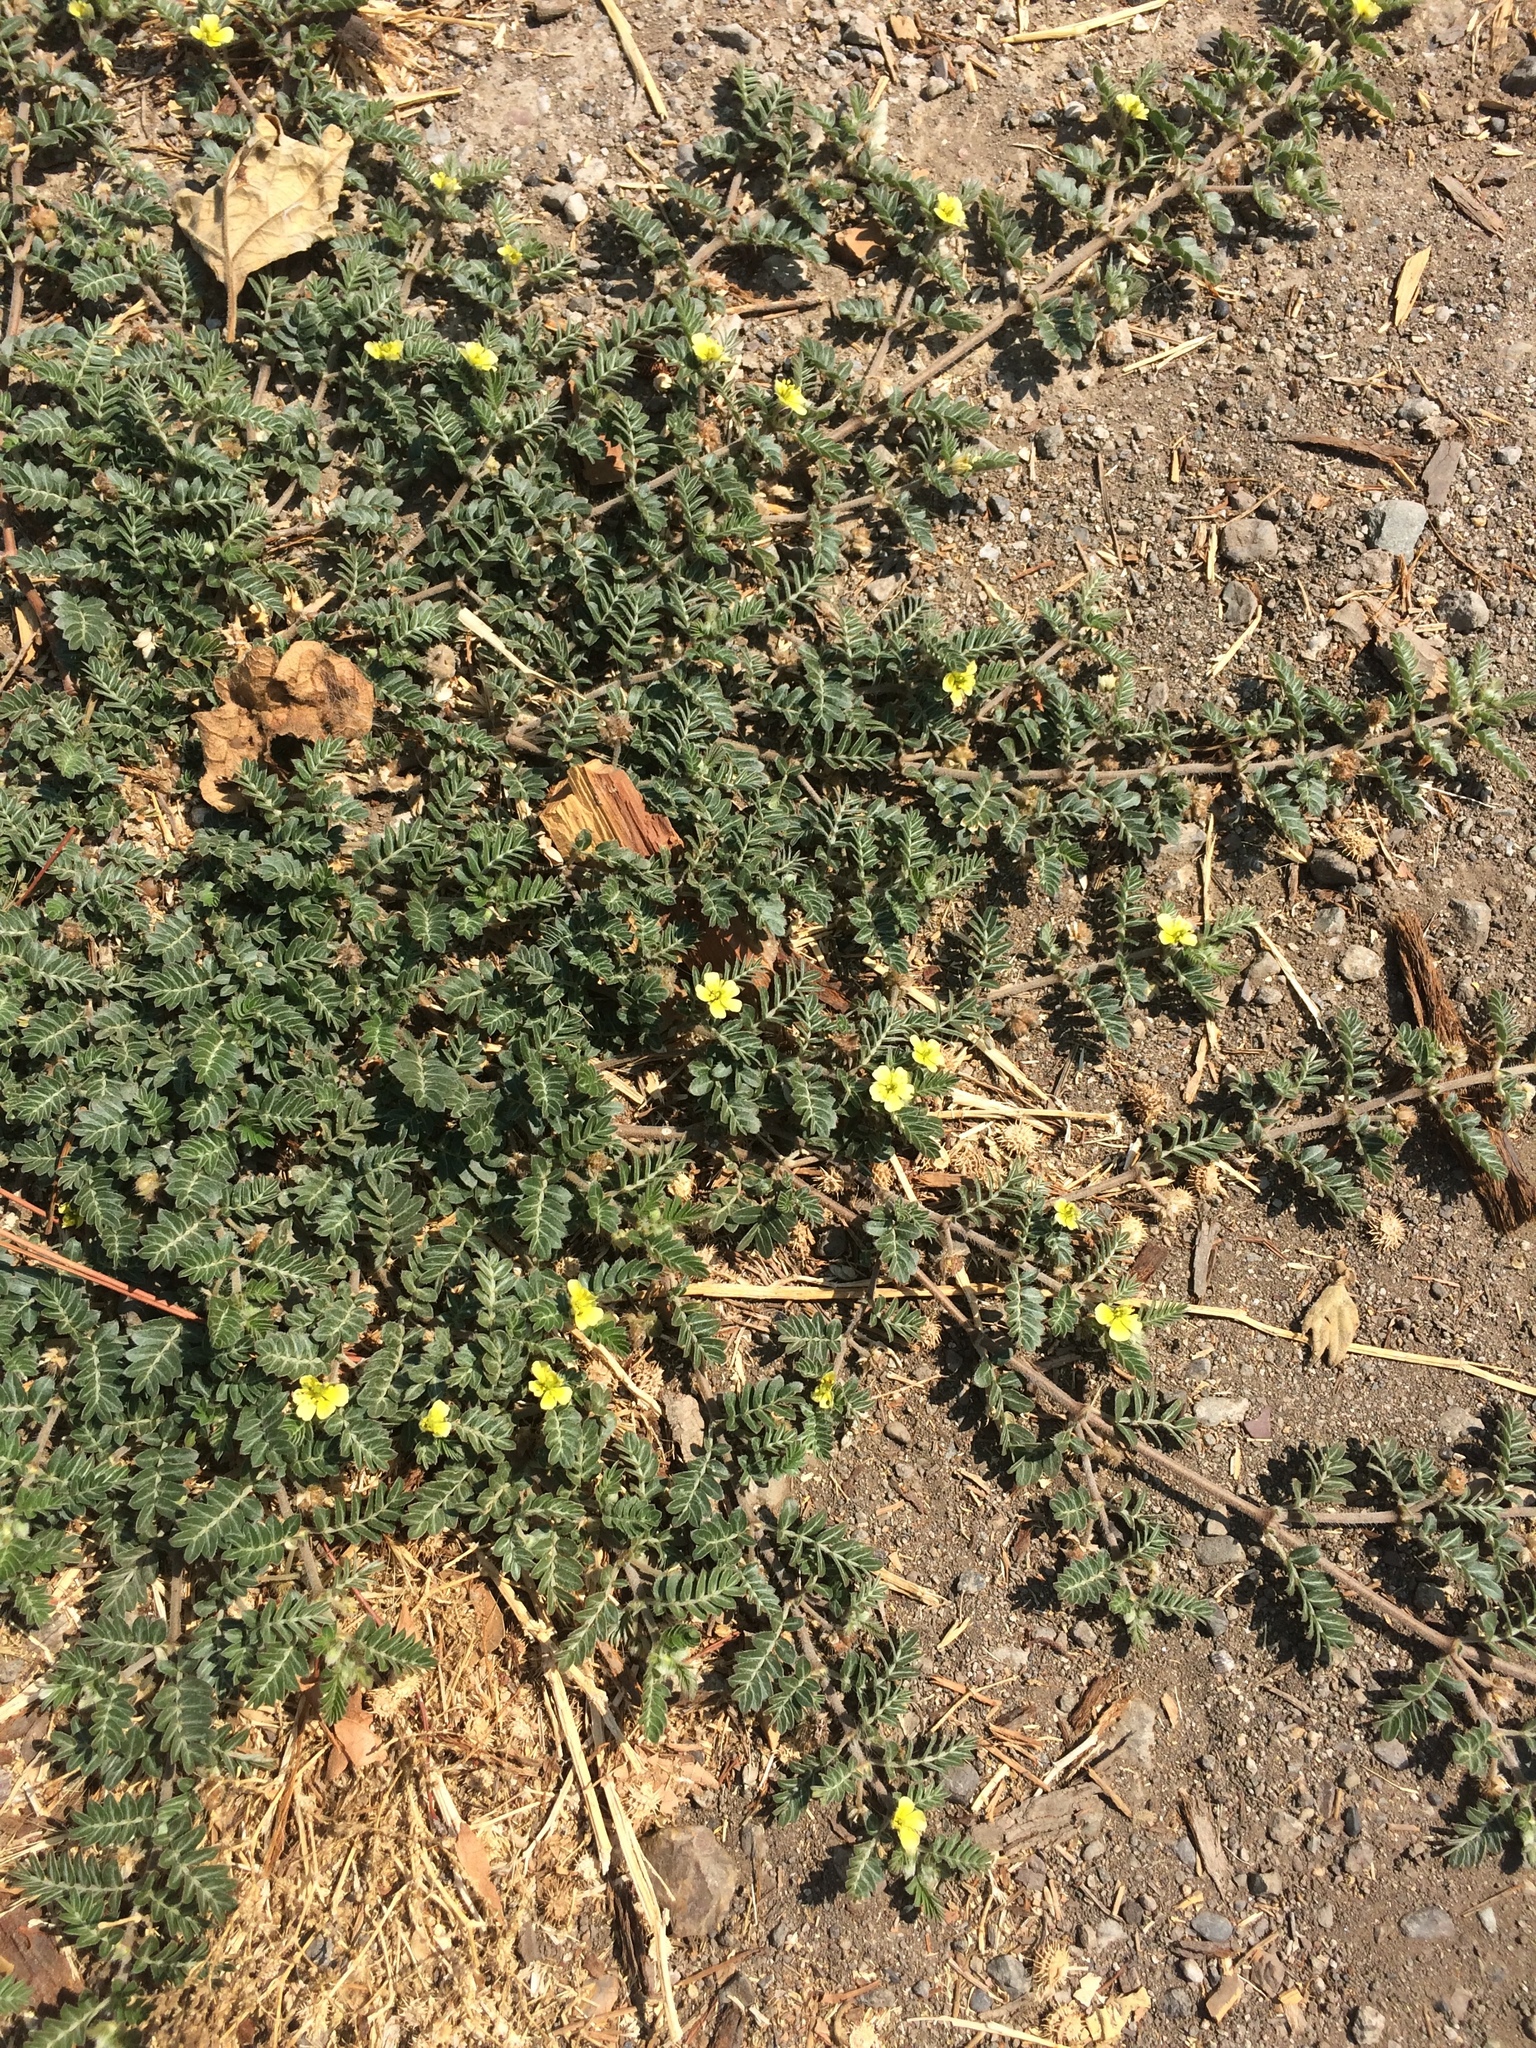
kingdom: Plantae
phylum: Tracheophyta
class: Magnoliopsida
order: Zygophyllales
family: Zygophyllaceae
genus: Tribulus
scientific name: Tribulus terrestris
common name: Puncturevine
